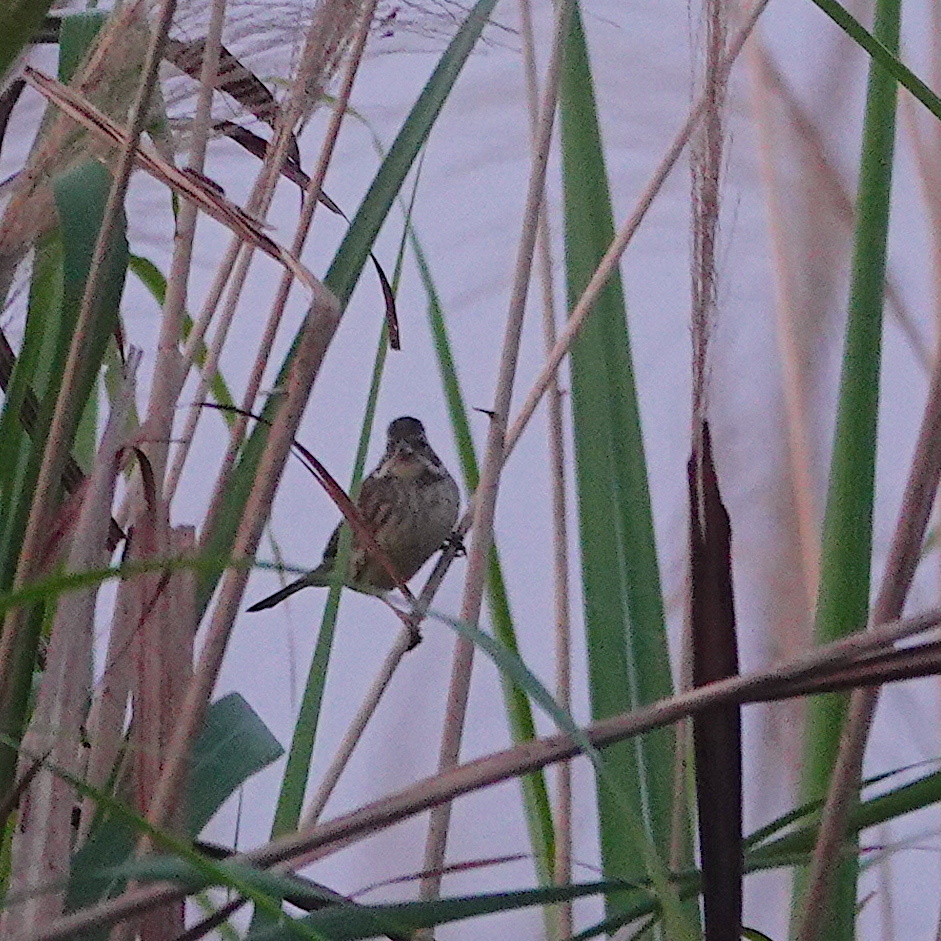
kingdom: Animalia
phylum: Chordata
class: Aves
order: Passeriformes
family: Emberizidae
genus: Emberiza
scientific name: Emberiza spodocephala
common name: Black-faced bunting
